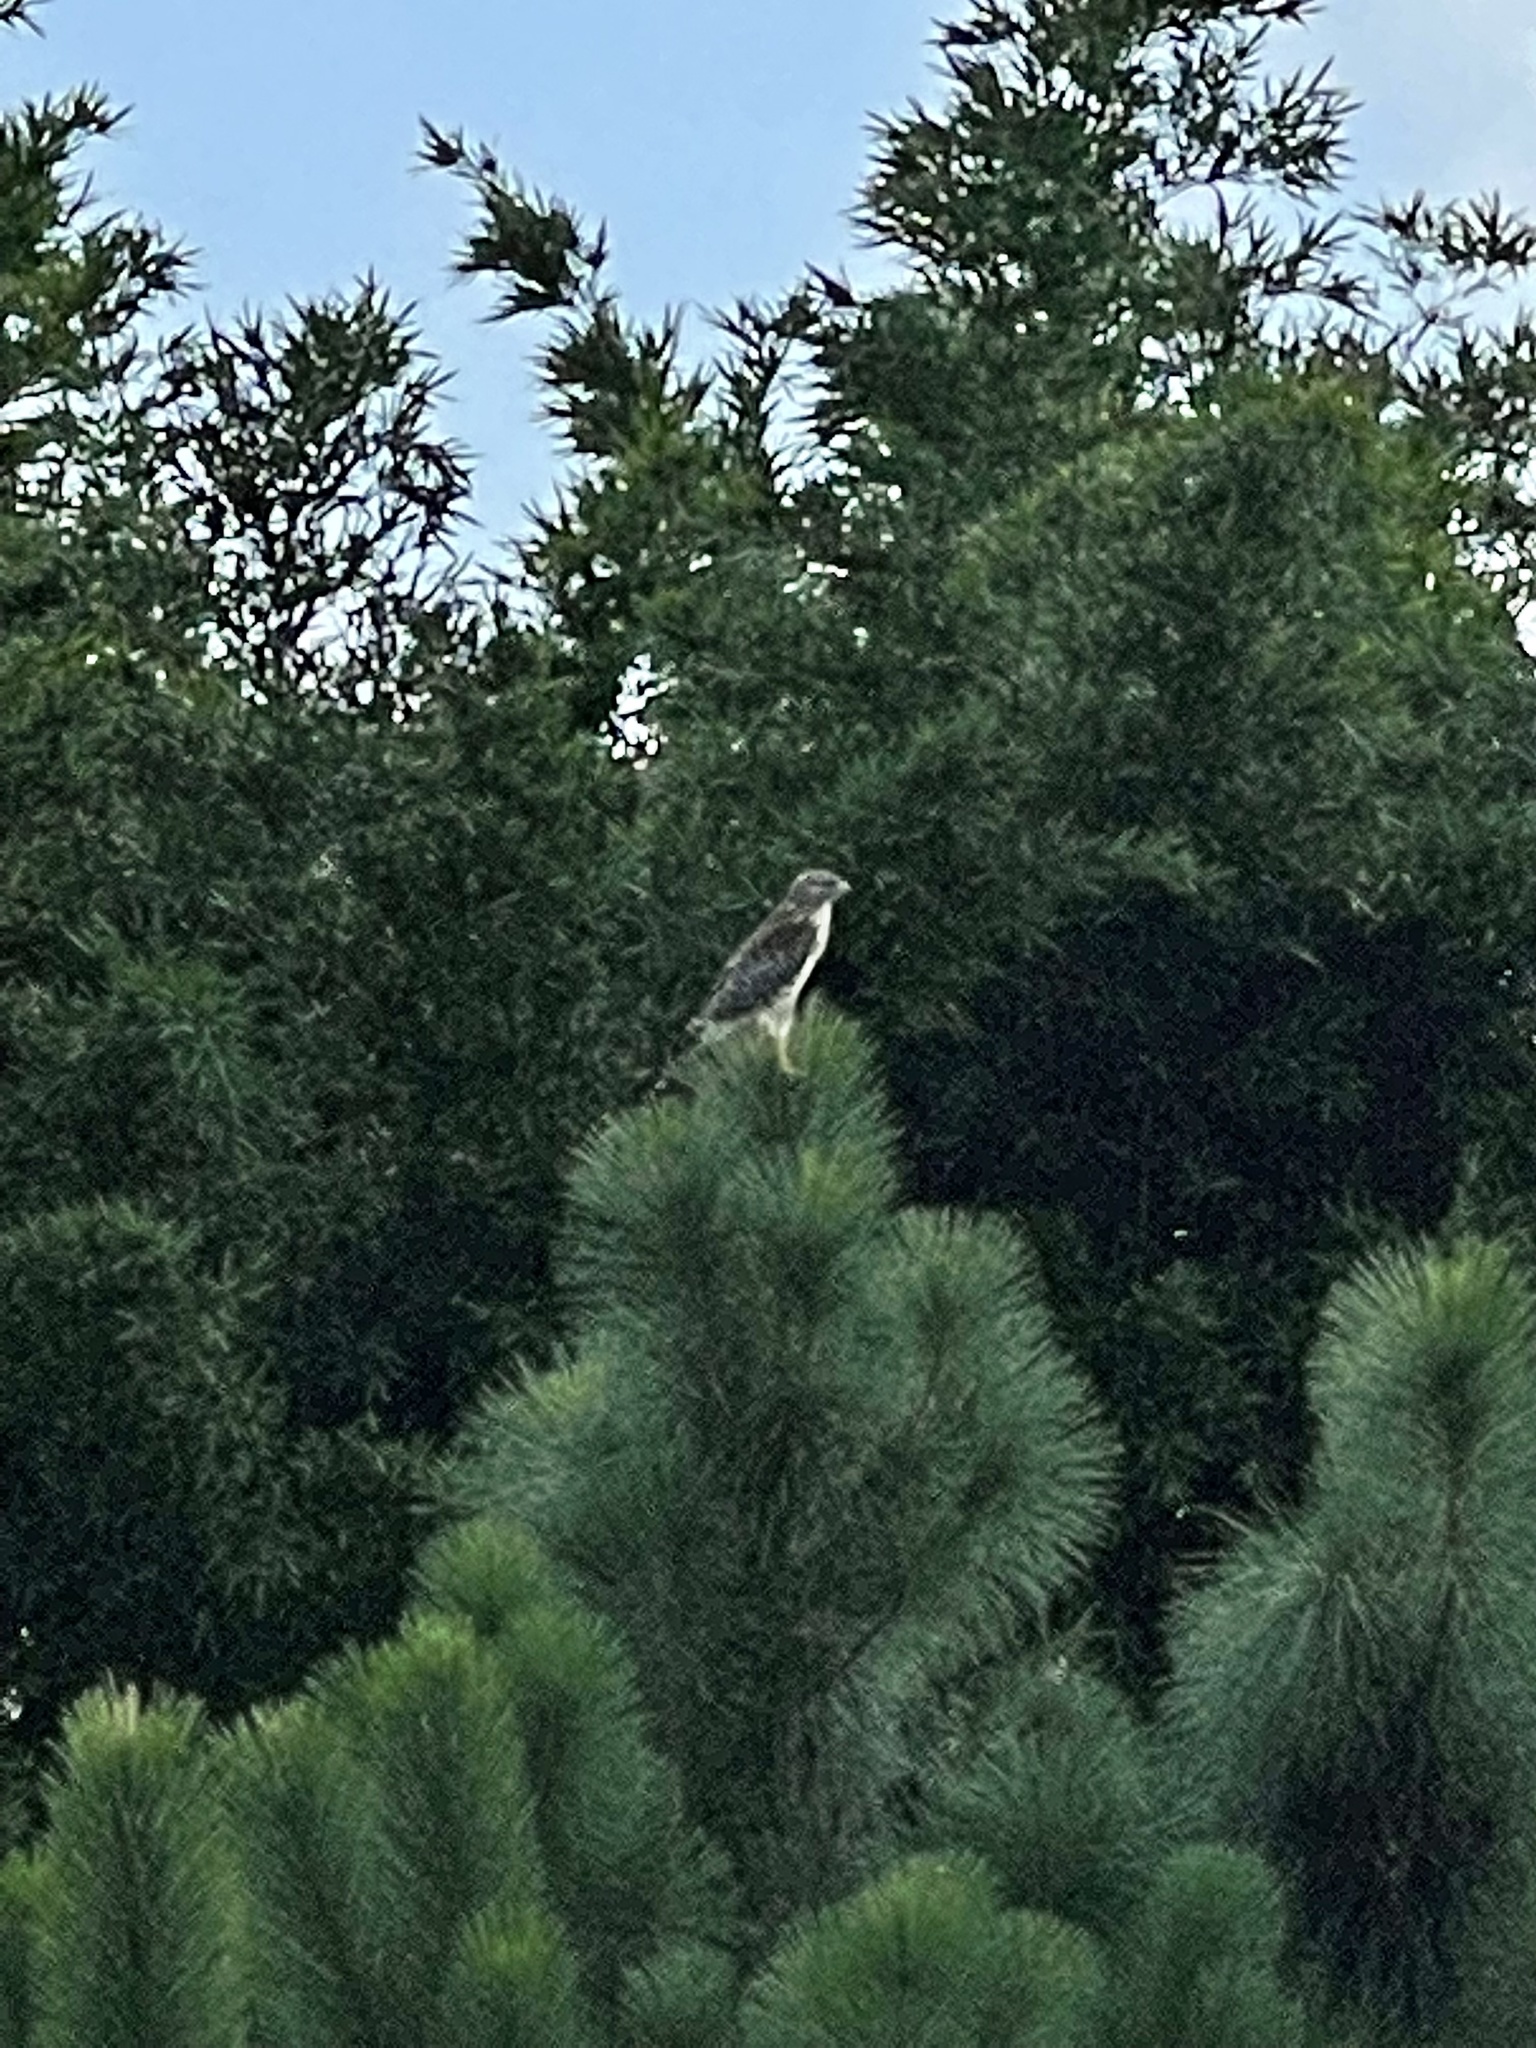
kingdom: Animalia
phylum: Chordata
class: Aves
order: Accipitriformes
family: Accipitridae
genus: Buteo
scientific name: Buteo lineatus
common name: Red-shouldered hawk
